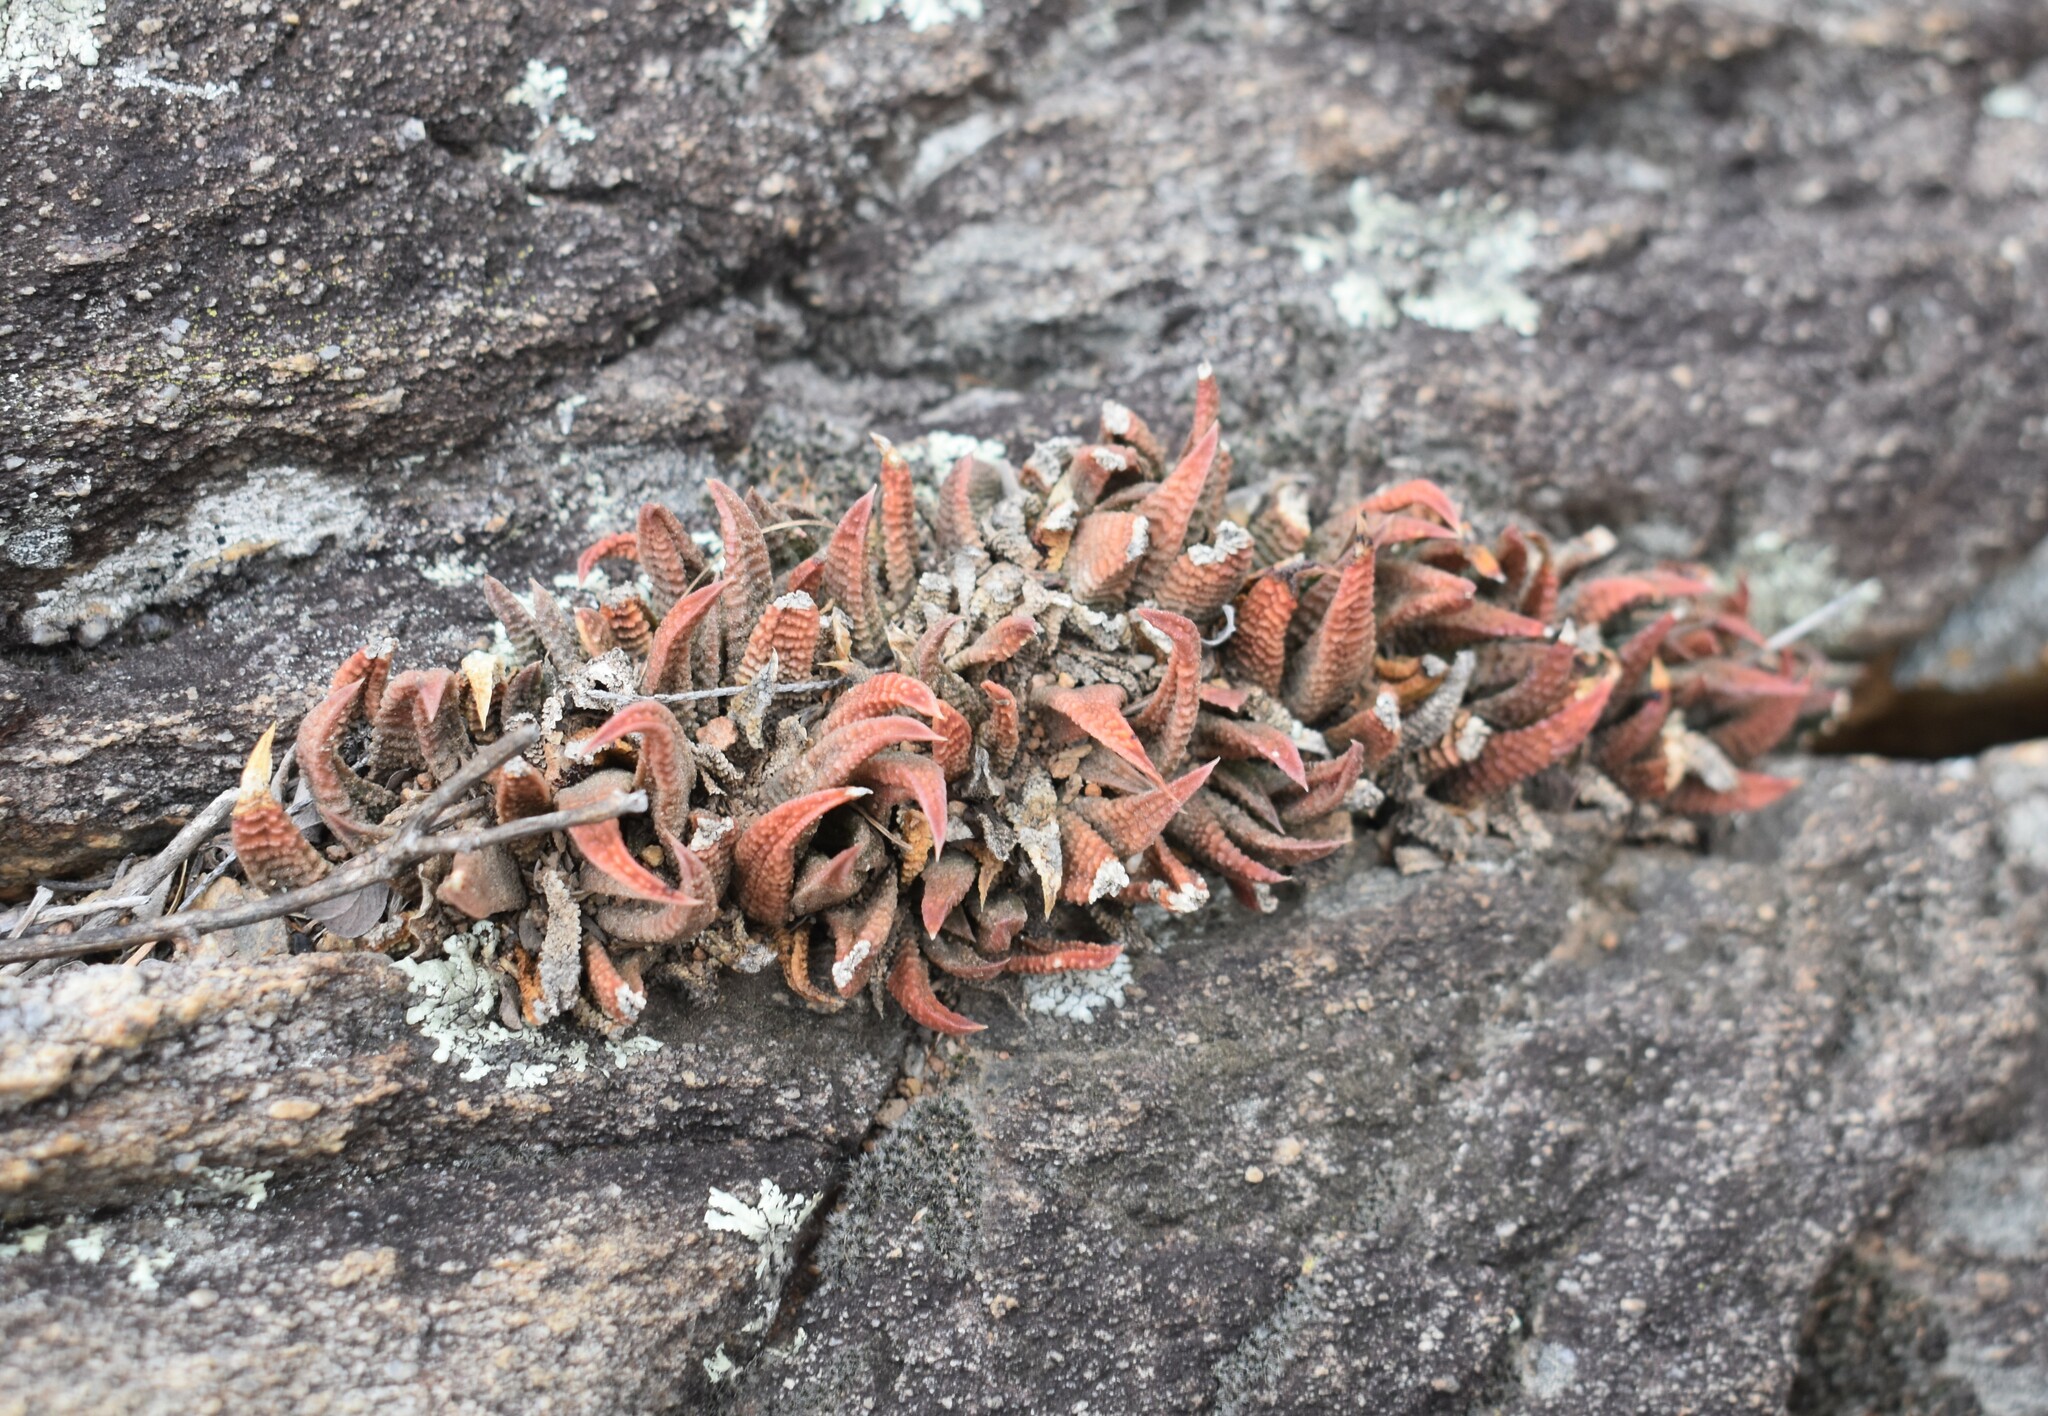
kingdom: Plantae
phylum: Tracheophyta
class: Liliopsida
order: Asparagales
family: Asphodelaceae
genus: Haworthiopsis
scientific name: Haworthiopsis scabra
